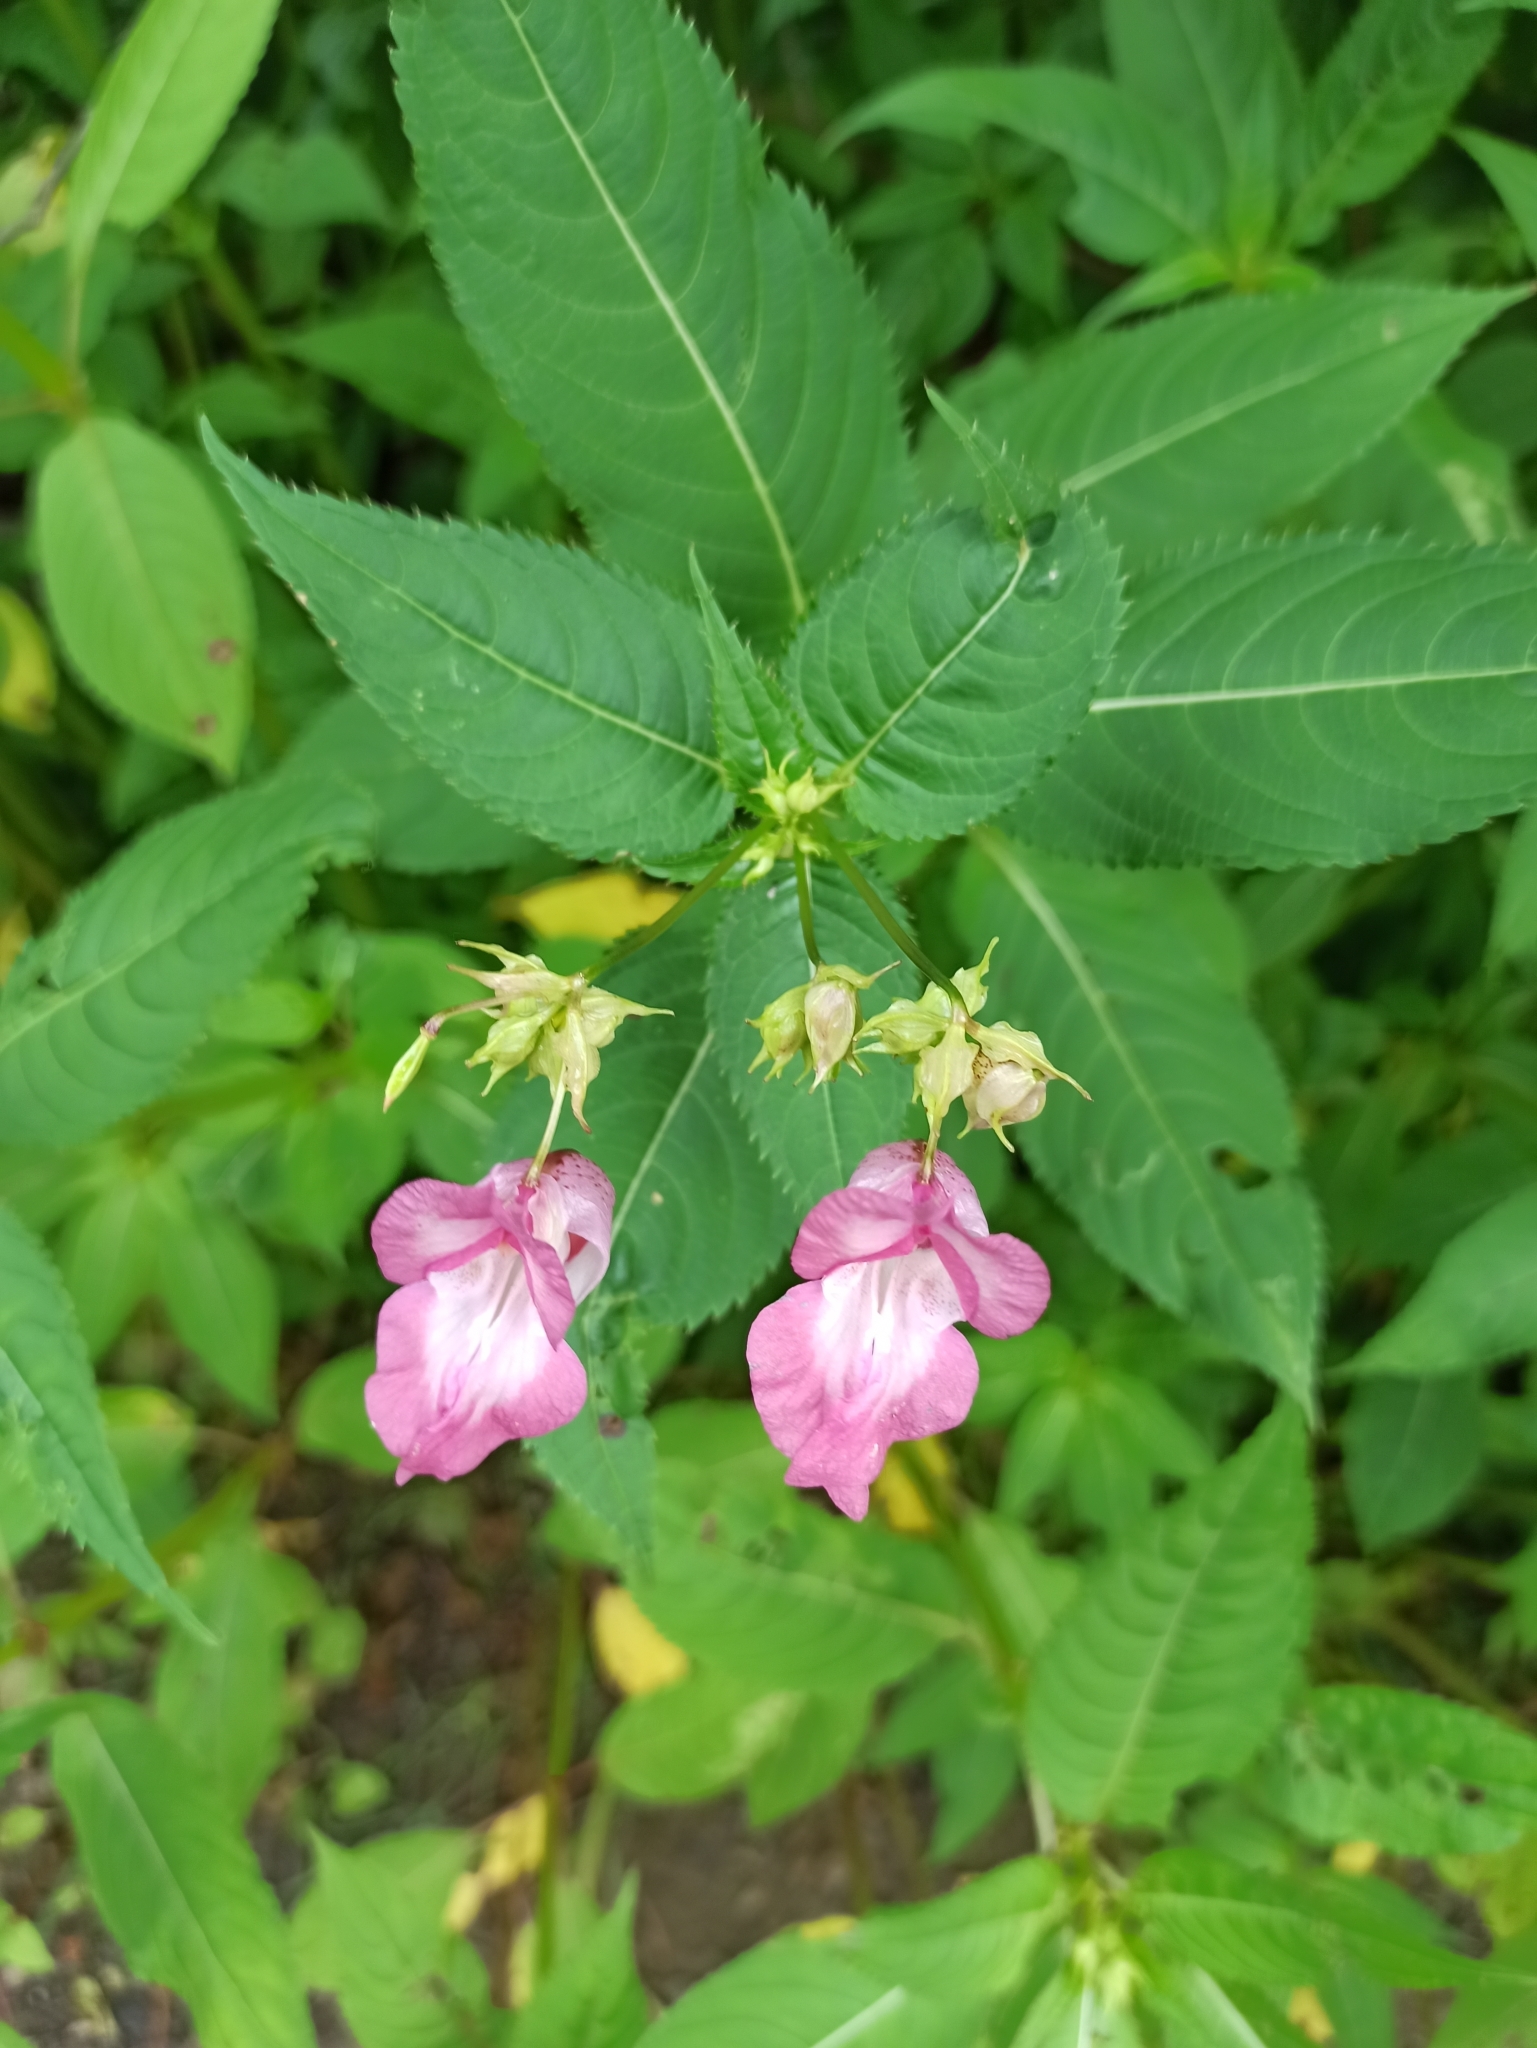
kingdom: Plantae
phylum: Tracheophyta
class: Magnoliopsida
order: Ericales
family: Balsaminaceae
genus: Impatiens
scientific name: Impatiens glandulifera
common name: Himalayan balsam
